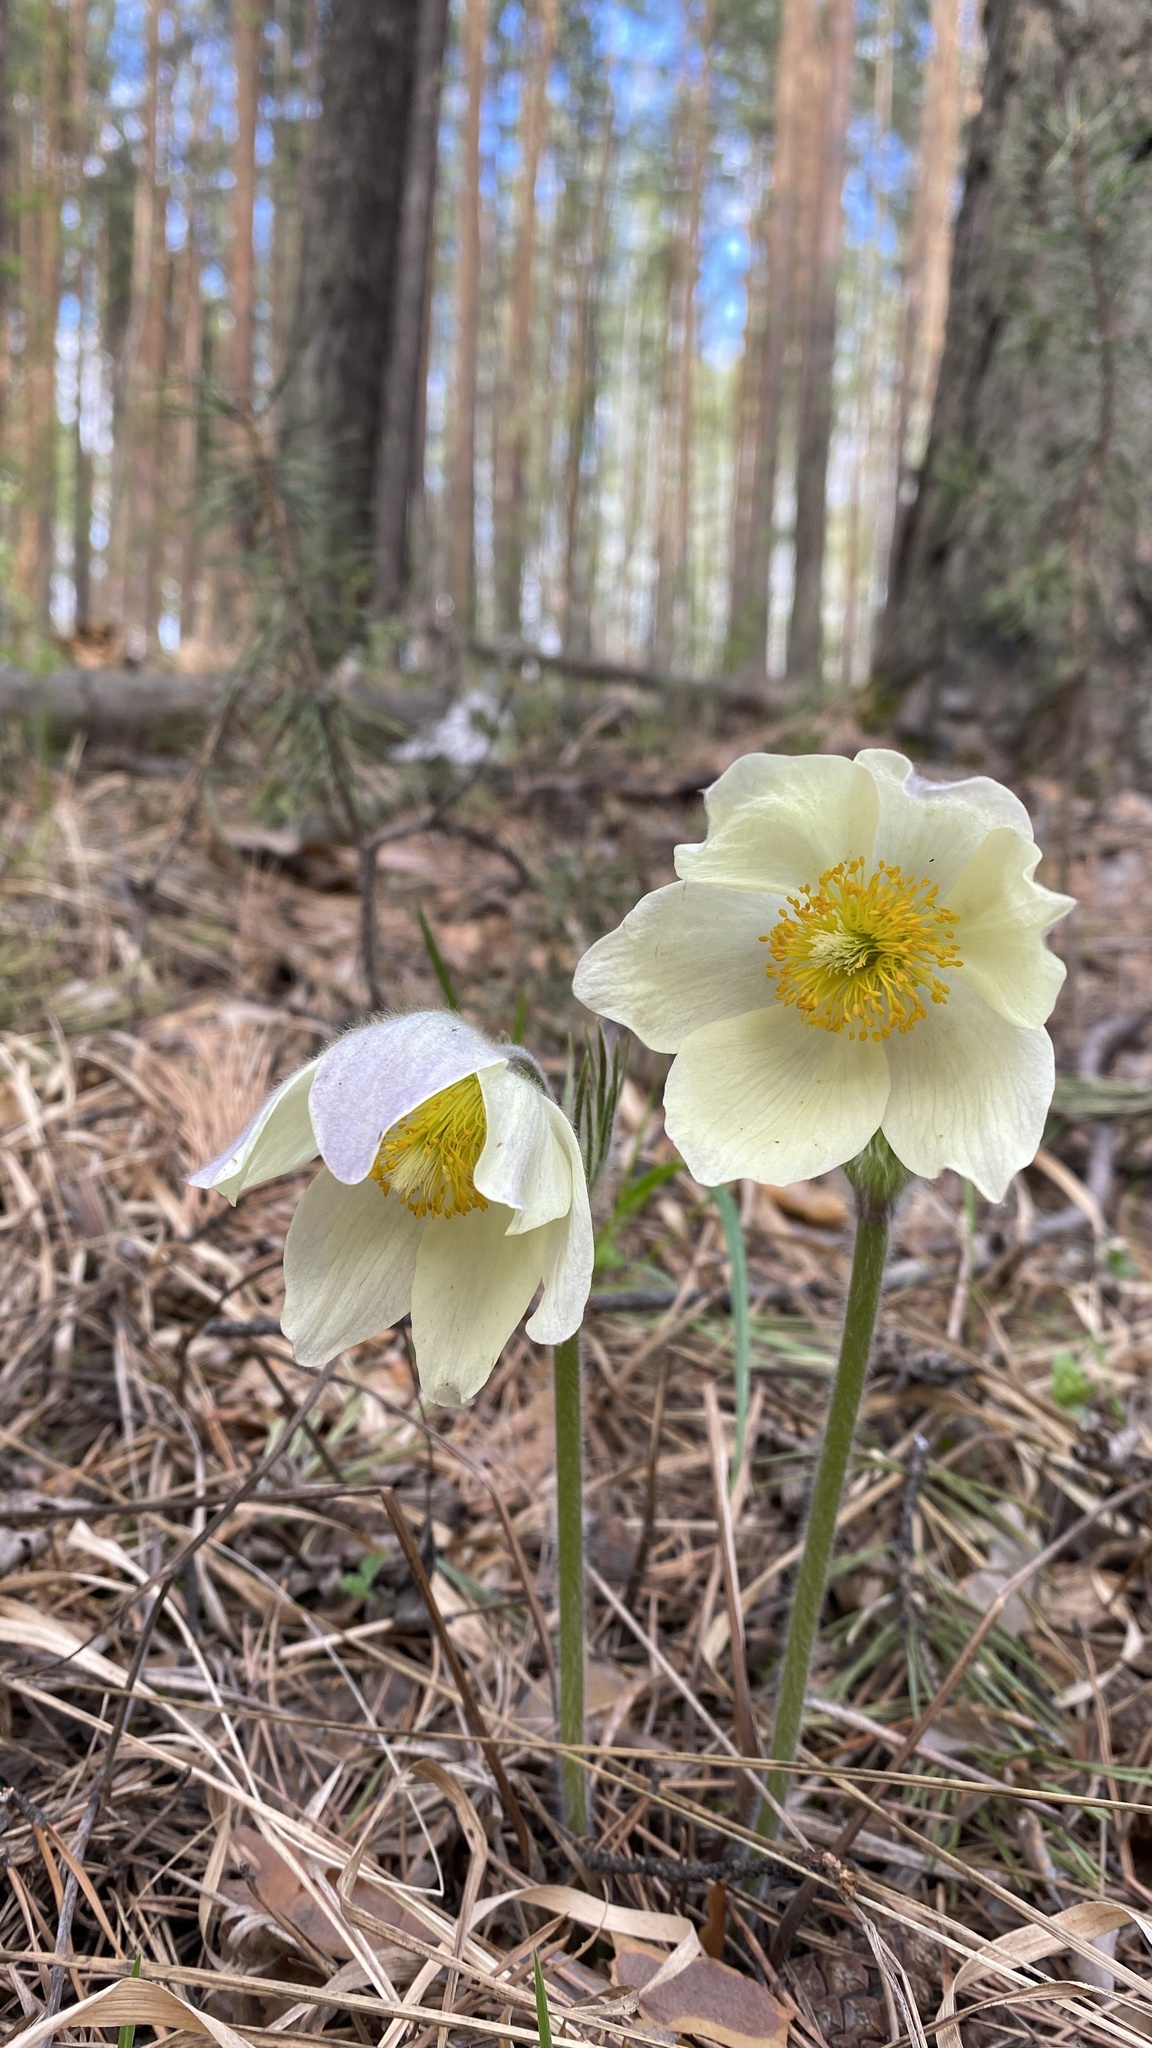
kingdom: Plantae
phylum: Tracheophyta
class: Magnoliopsida
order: Ranunculales
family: Ranunculaceae
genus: Pulsatilla
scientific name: Pulsatilla patens
